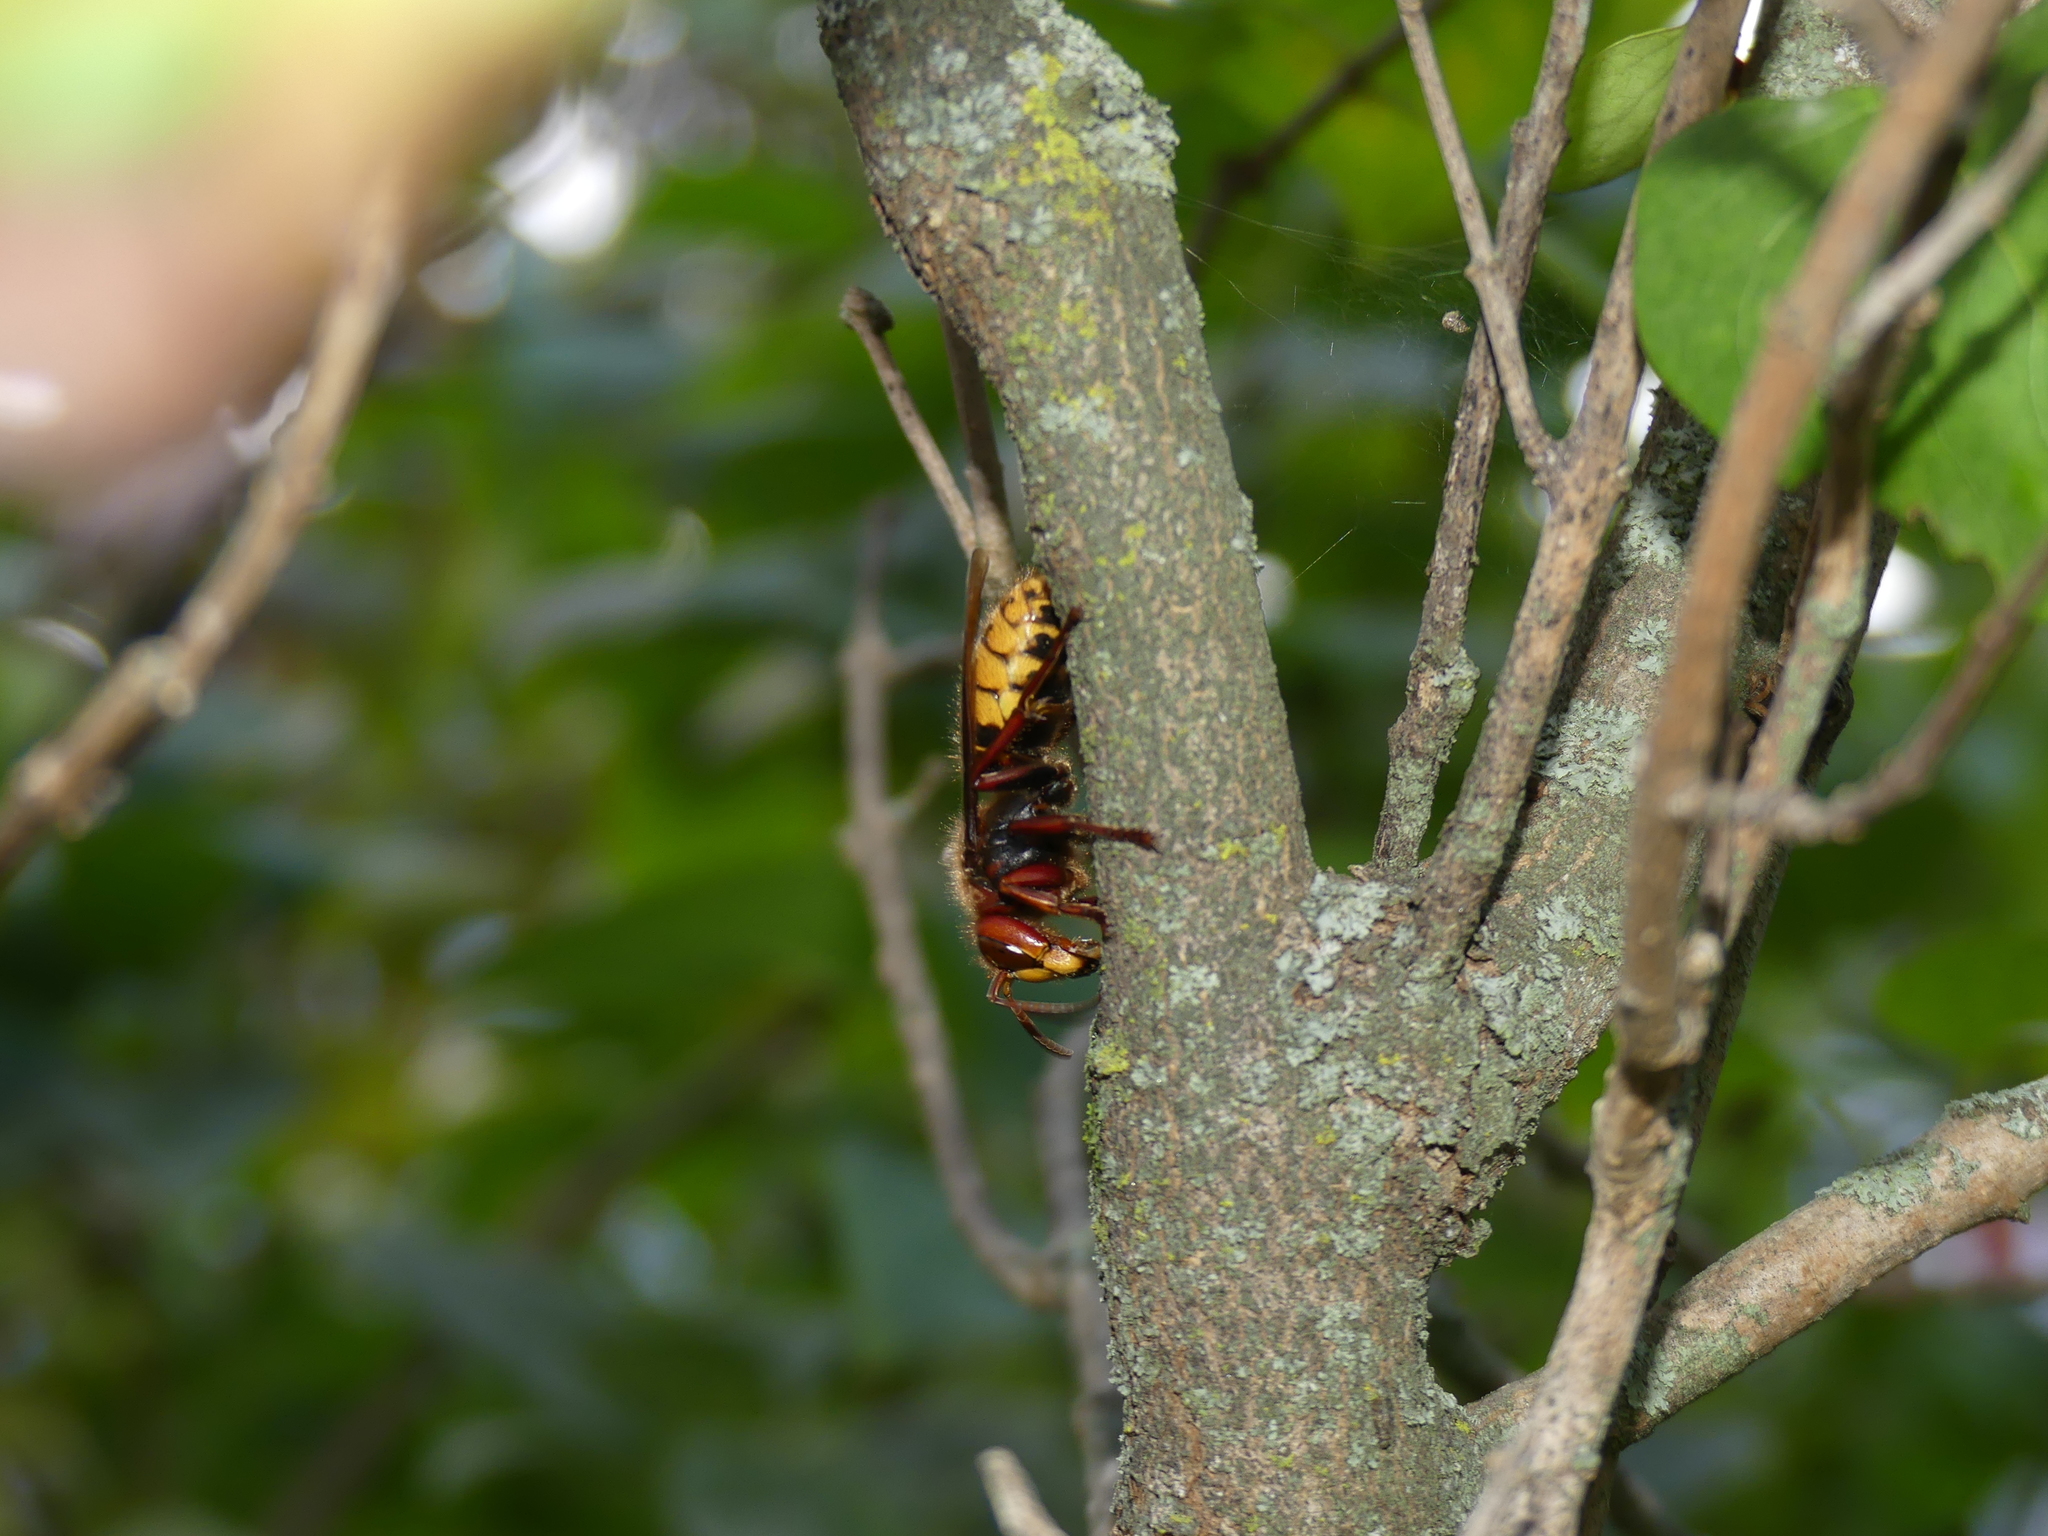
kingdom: Animalia
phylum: Arthropoda
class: Insecta
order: Hymenoptera
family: Vespidae
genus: Vespa
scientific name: Vespa crabro
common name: Hornet
